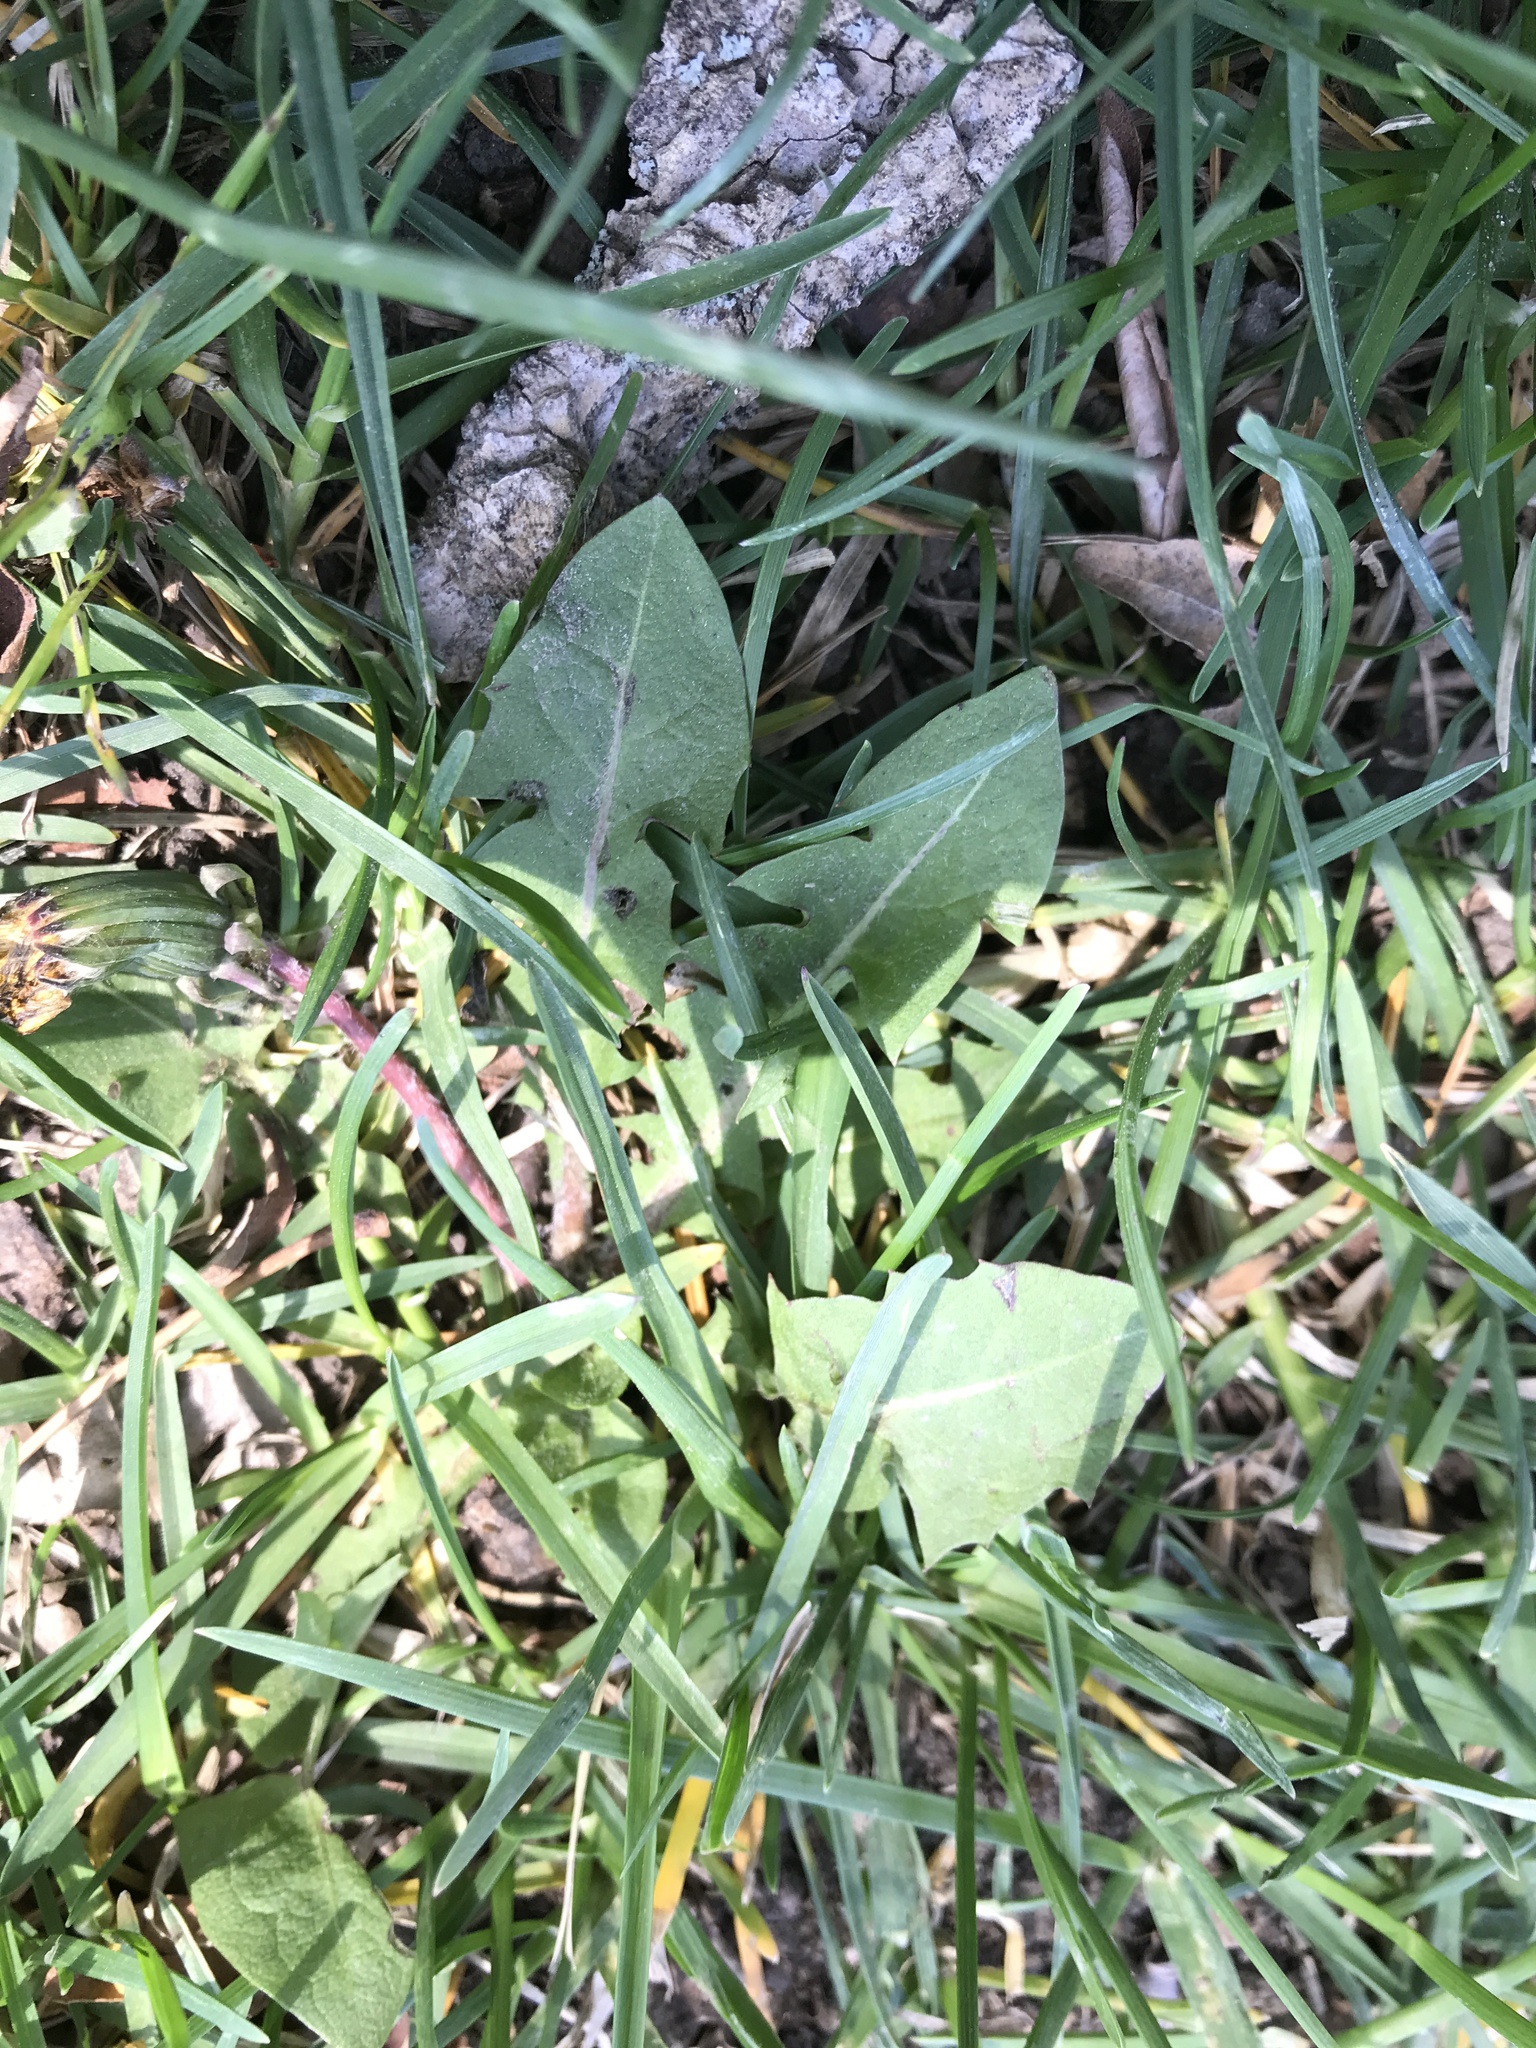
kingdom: Plantae
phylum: Tracheophyta
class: Magnoliopsida
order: Asterales
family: Asteraceae
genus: Taraxacum
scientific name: Taraxacum officinale
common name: Common dandelion
